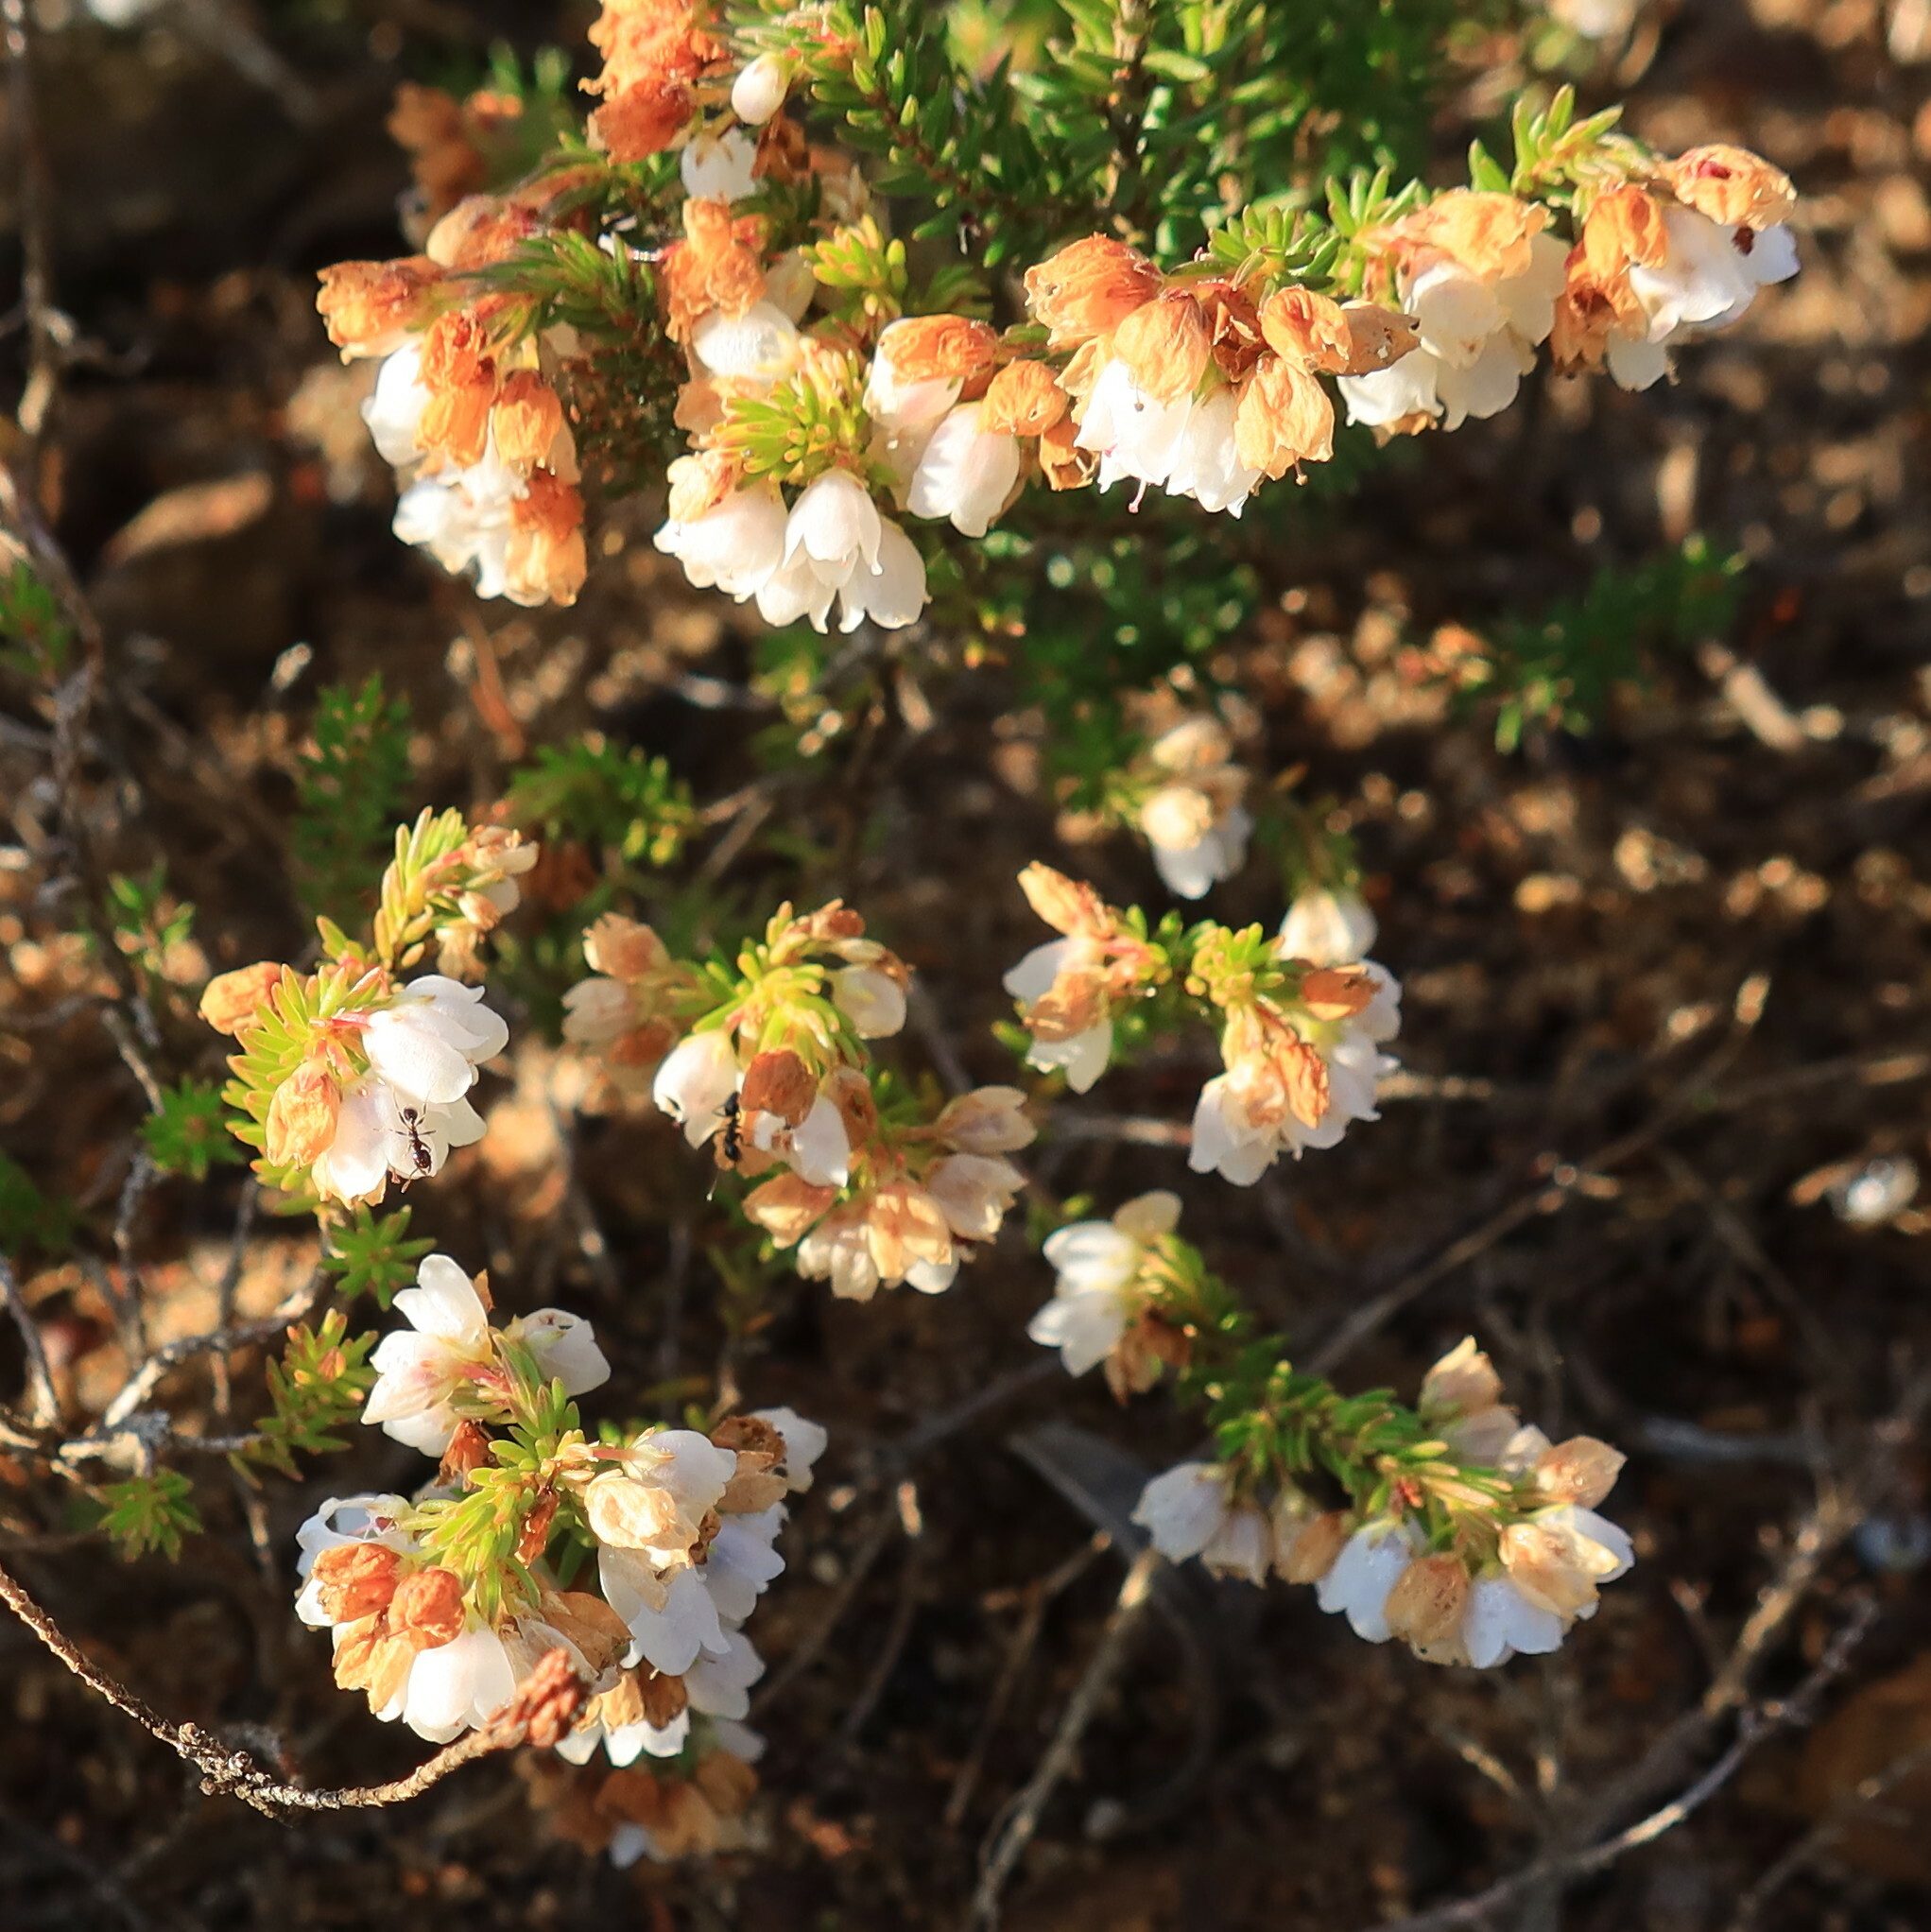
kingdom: Plantae
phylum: Tracheophyta
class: Magnoliopsida
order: Ericales
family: Ericaceae
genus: Erica
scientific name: Erica capensis
